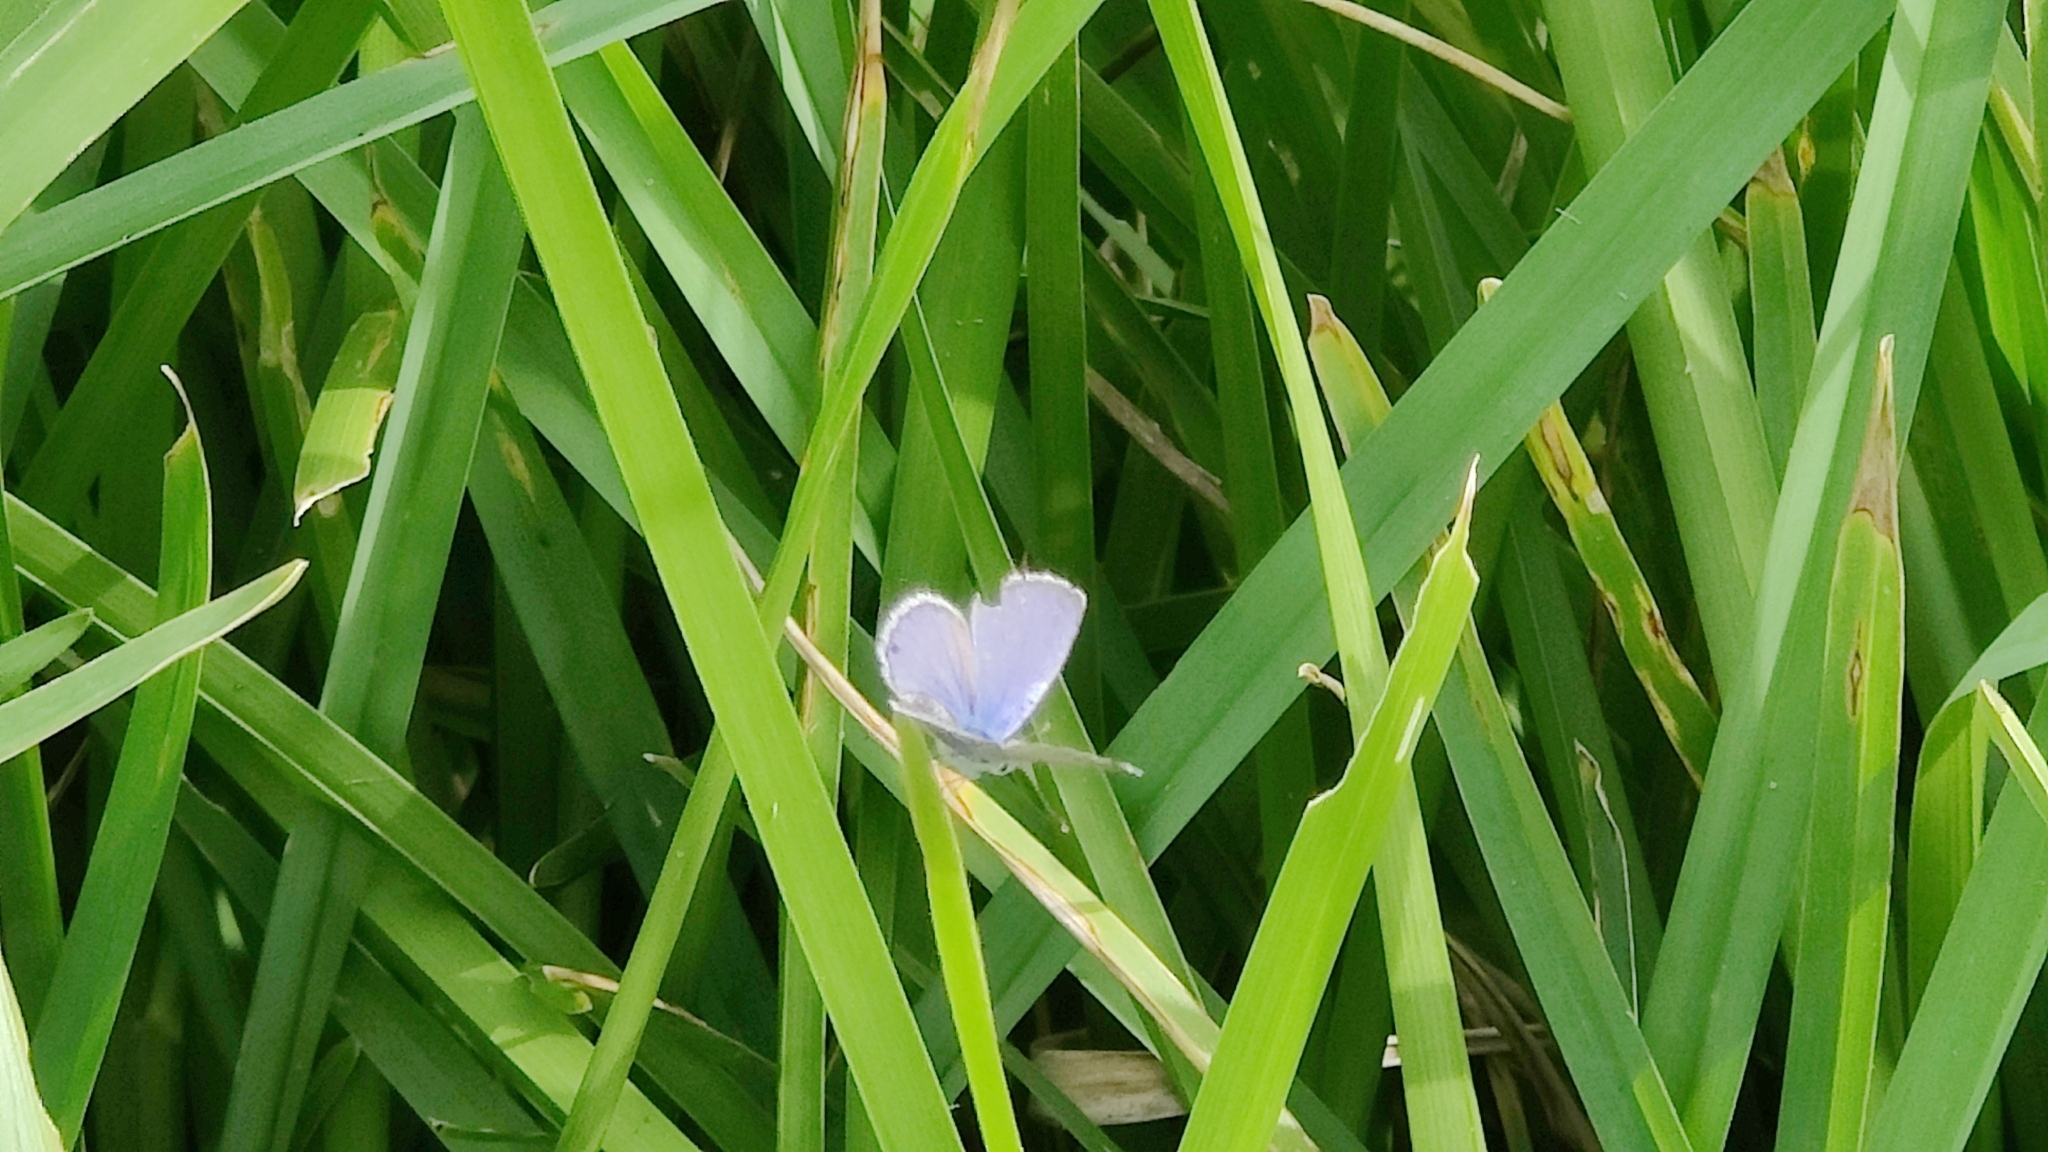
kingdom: Animalia
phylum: Arthropoda
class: Insecta
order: Lepidoptera
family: Lycaenidae
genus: Hemiargus
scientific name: Hemiargus ceraunus
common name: Ceraunus blue
